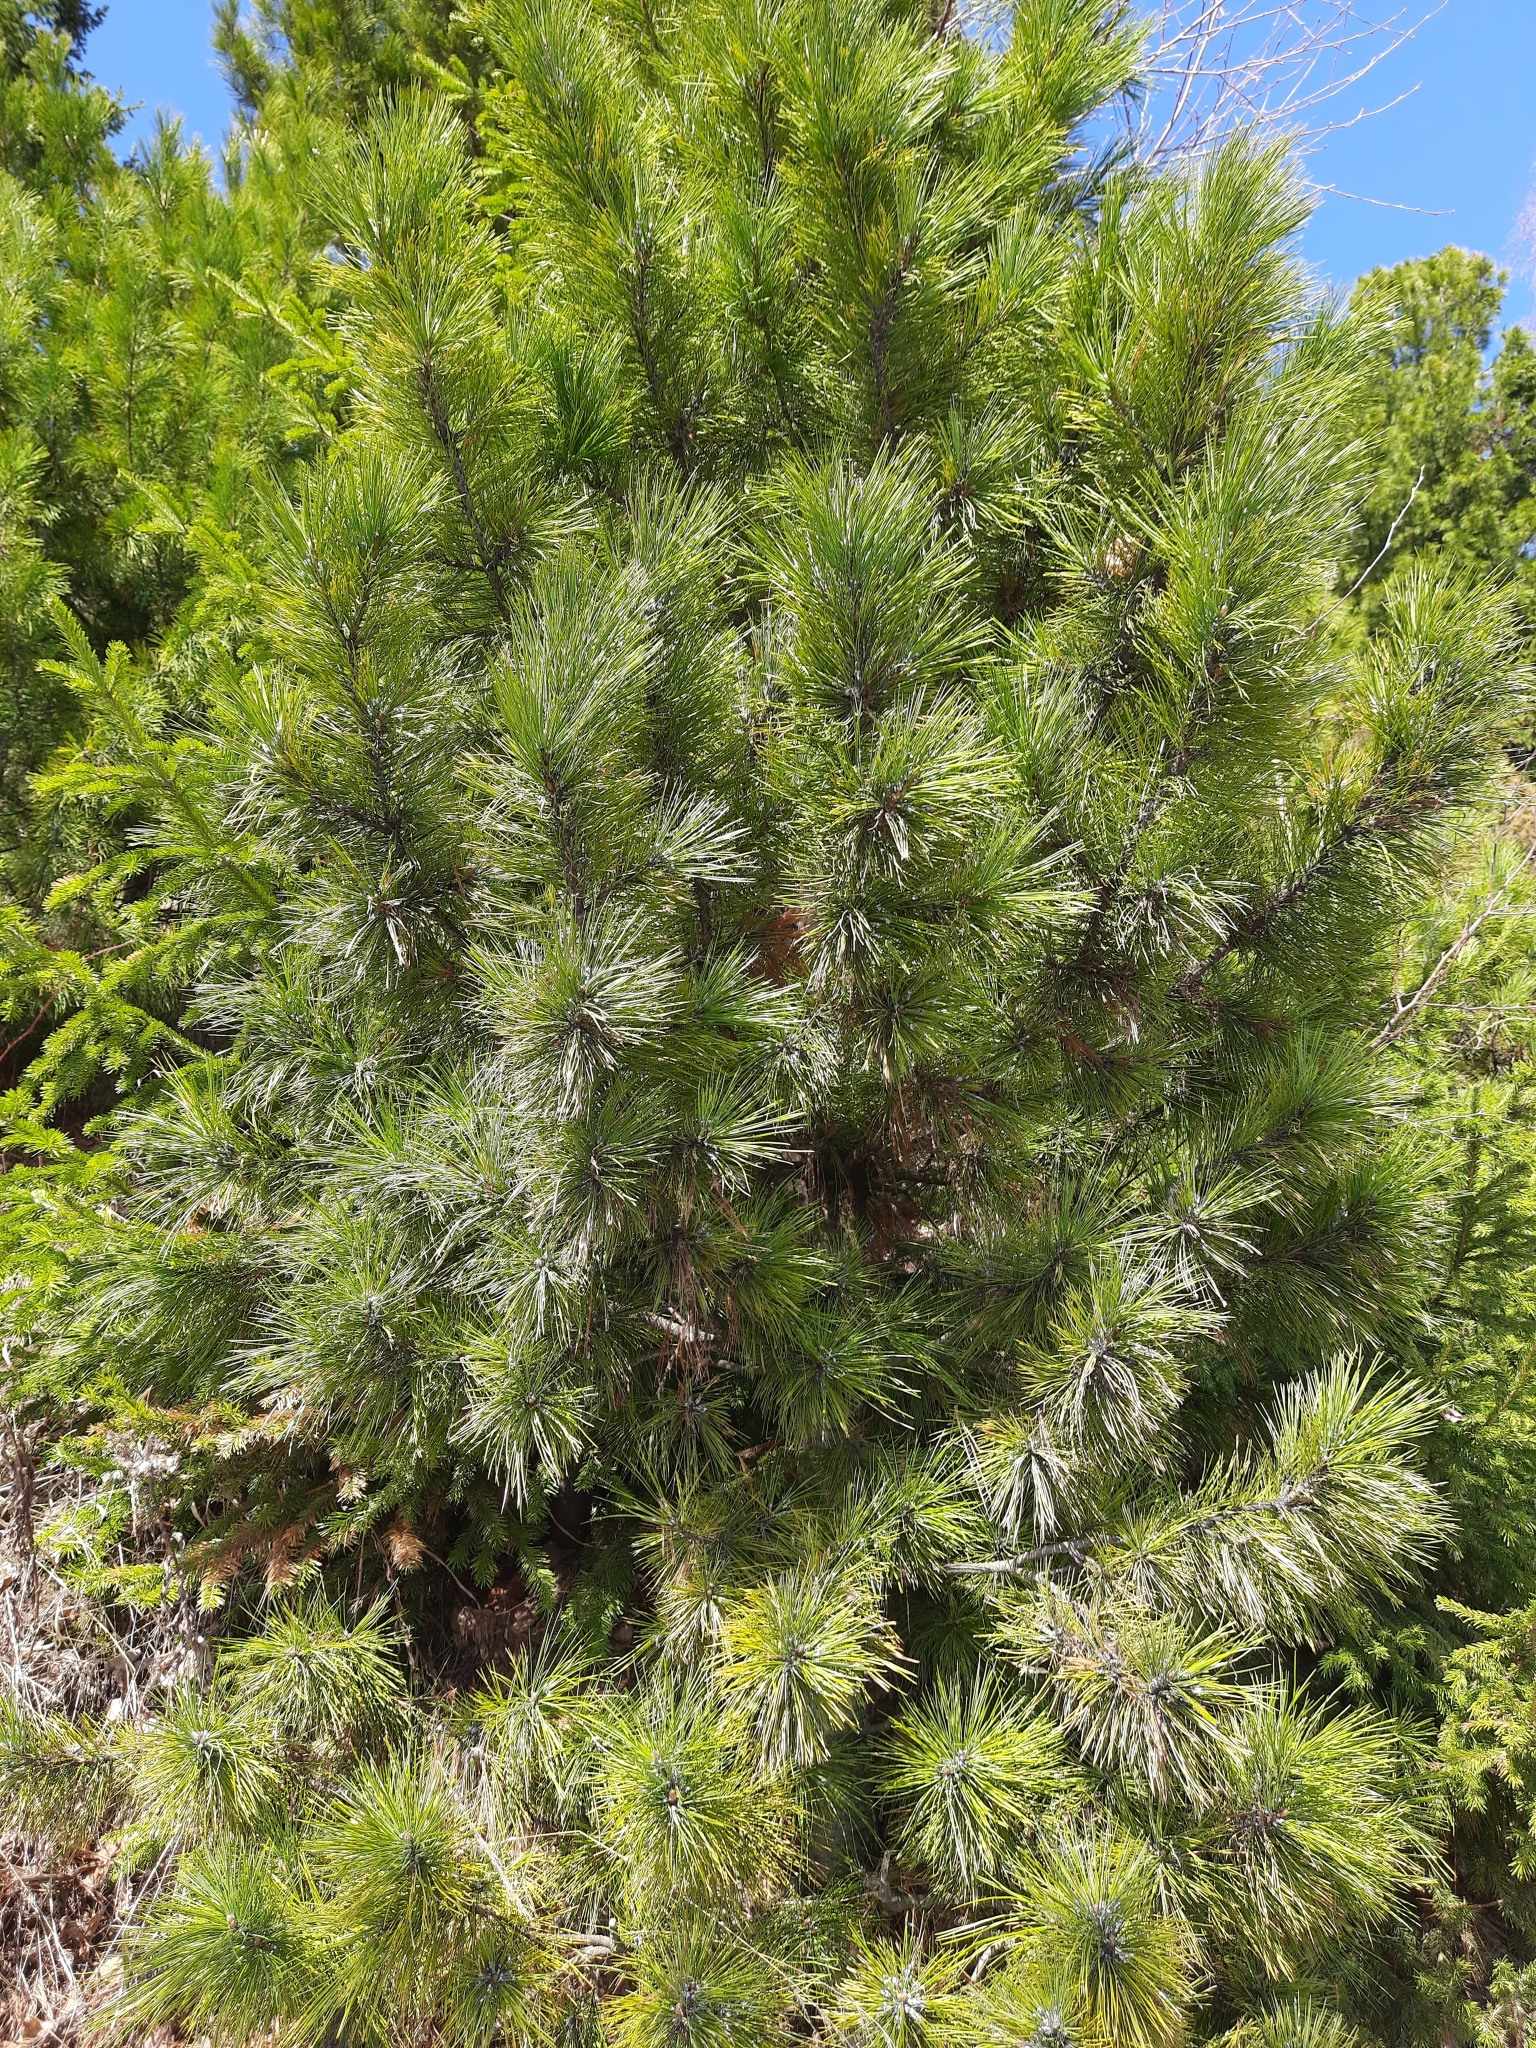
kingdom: Plantae
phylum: Tracheophyta
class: Pinopsida
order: Pinales
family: Pinaceae
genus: Pinus
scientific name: Pinus sibirica
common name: Siberian pine
